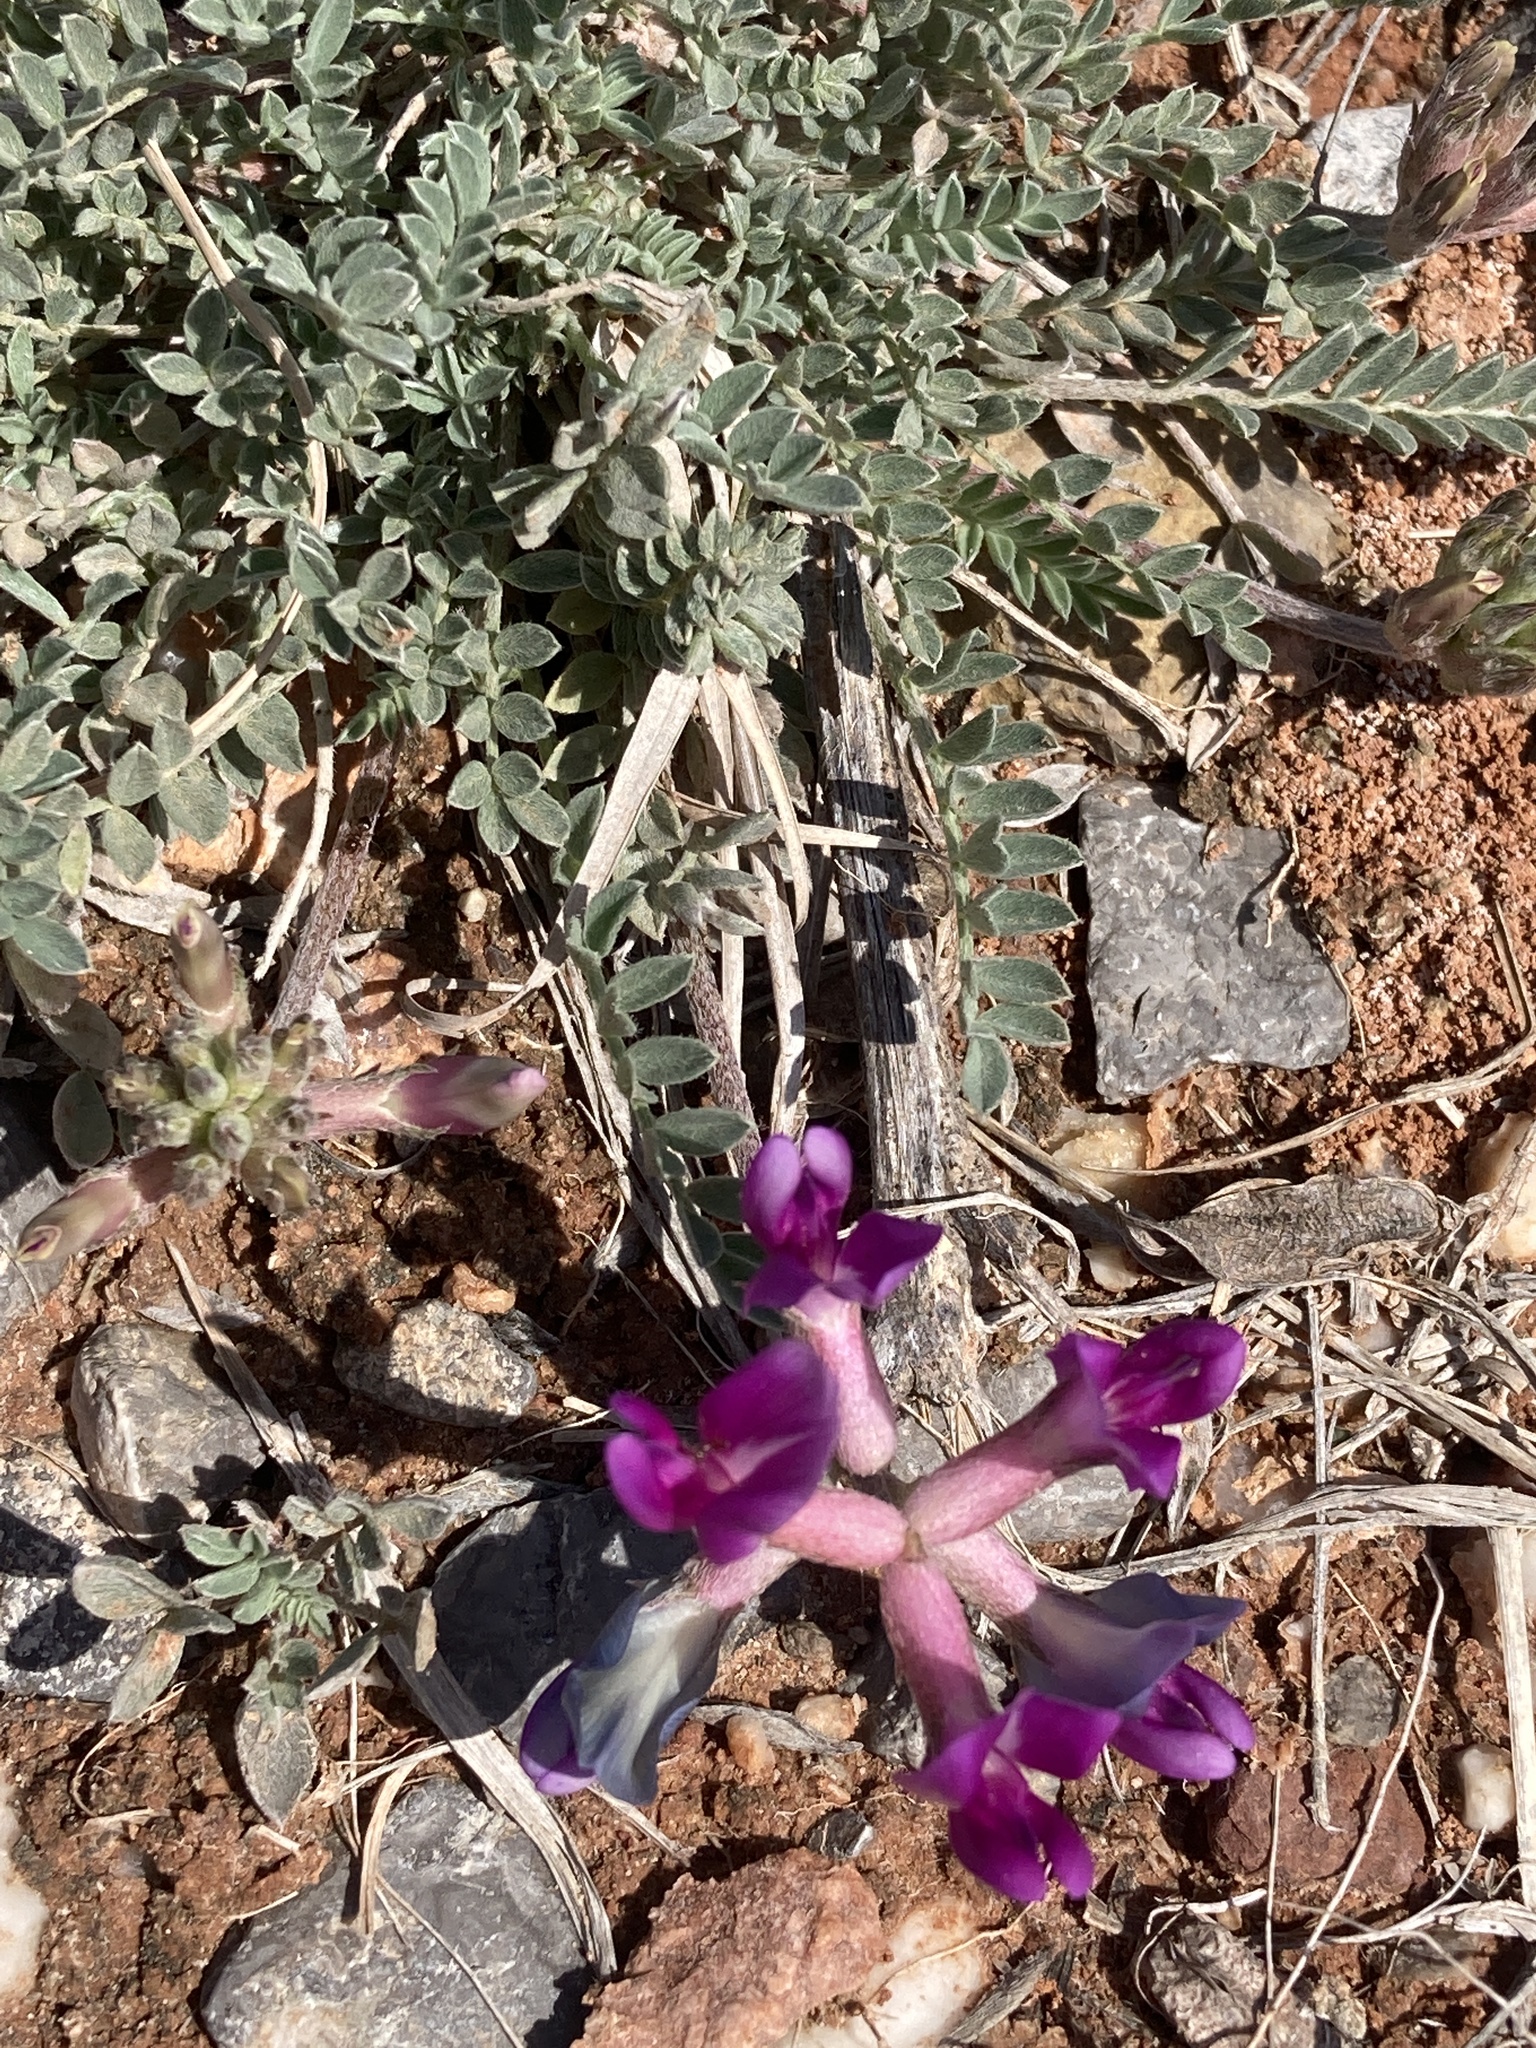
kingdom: Plantae
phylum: Tracheophyta
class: Magnoliopsida
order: Fabales
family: Fabaceae
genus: Astragalus
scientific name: Astragalus missouriensis
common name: Missouri milk-vetch
